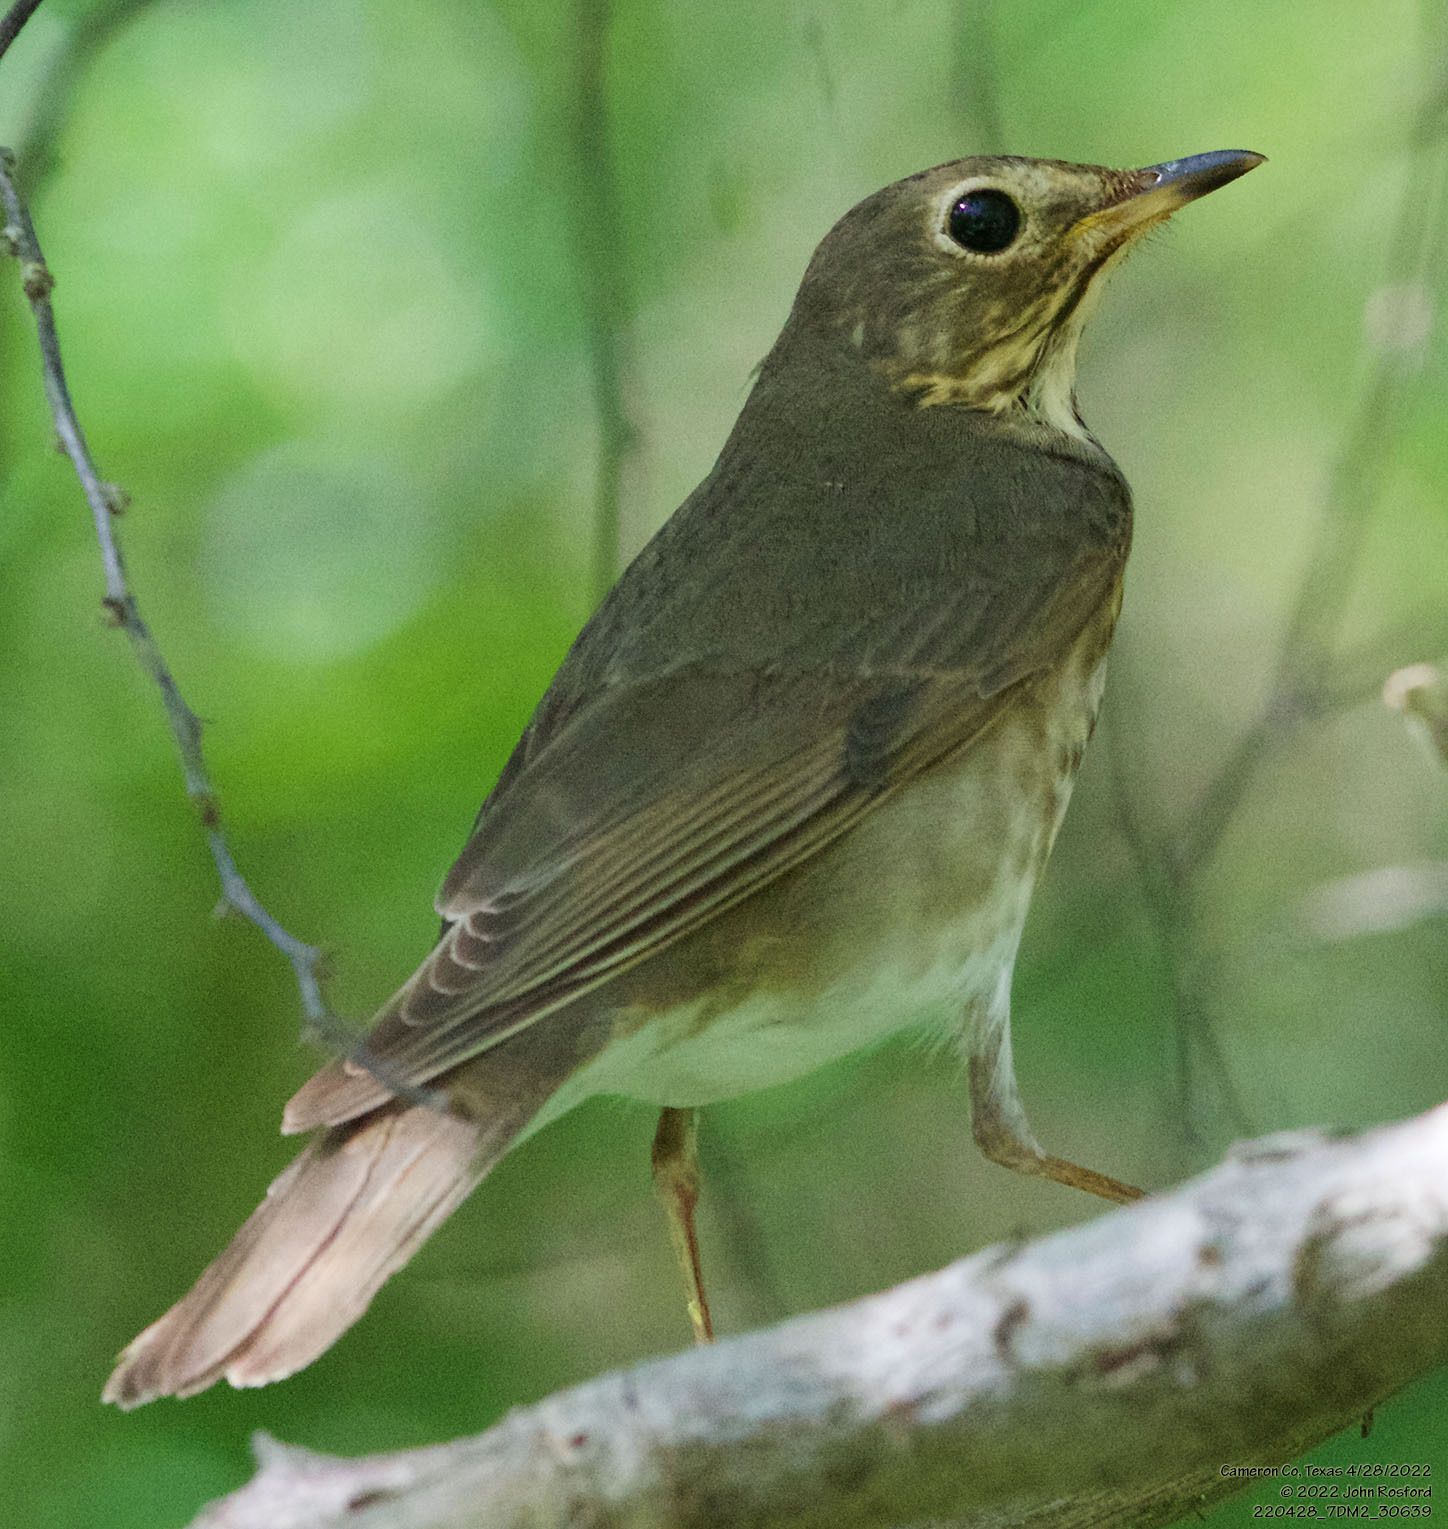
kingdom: Animalia
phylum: Chordata
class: Aves
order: Passeriformes
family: Turdidae
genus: Catharus
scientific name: Catharus ustulatus
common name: Swainson's thrush
